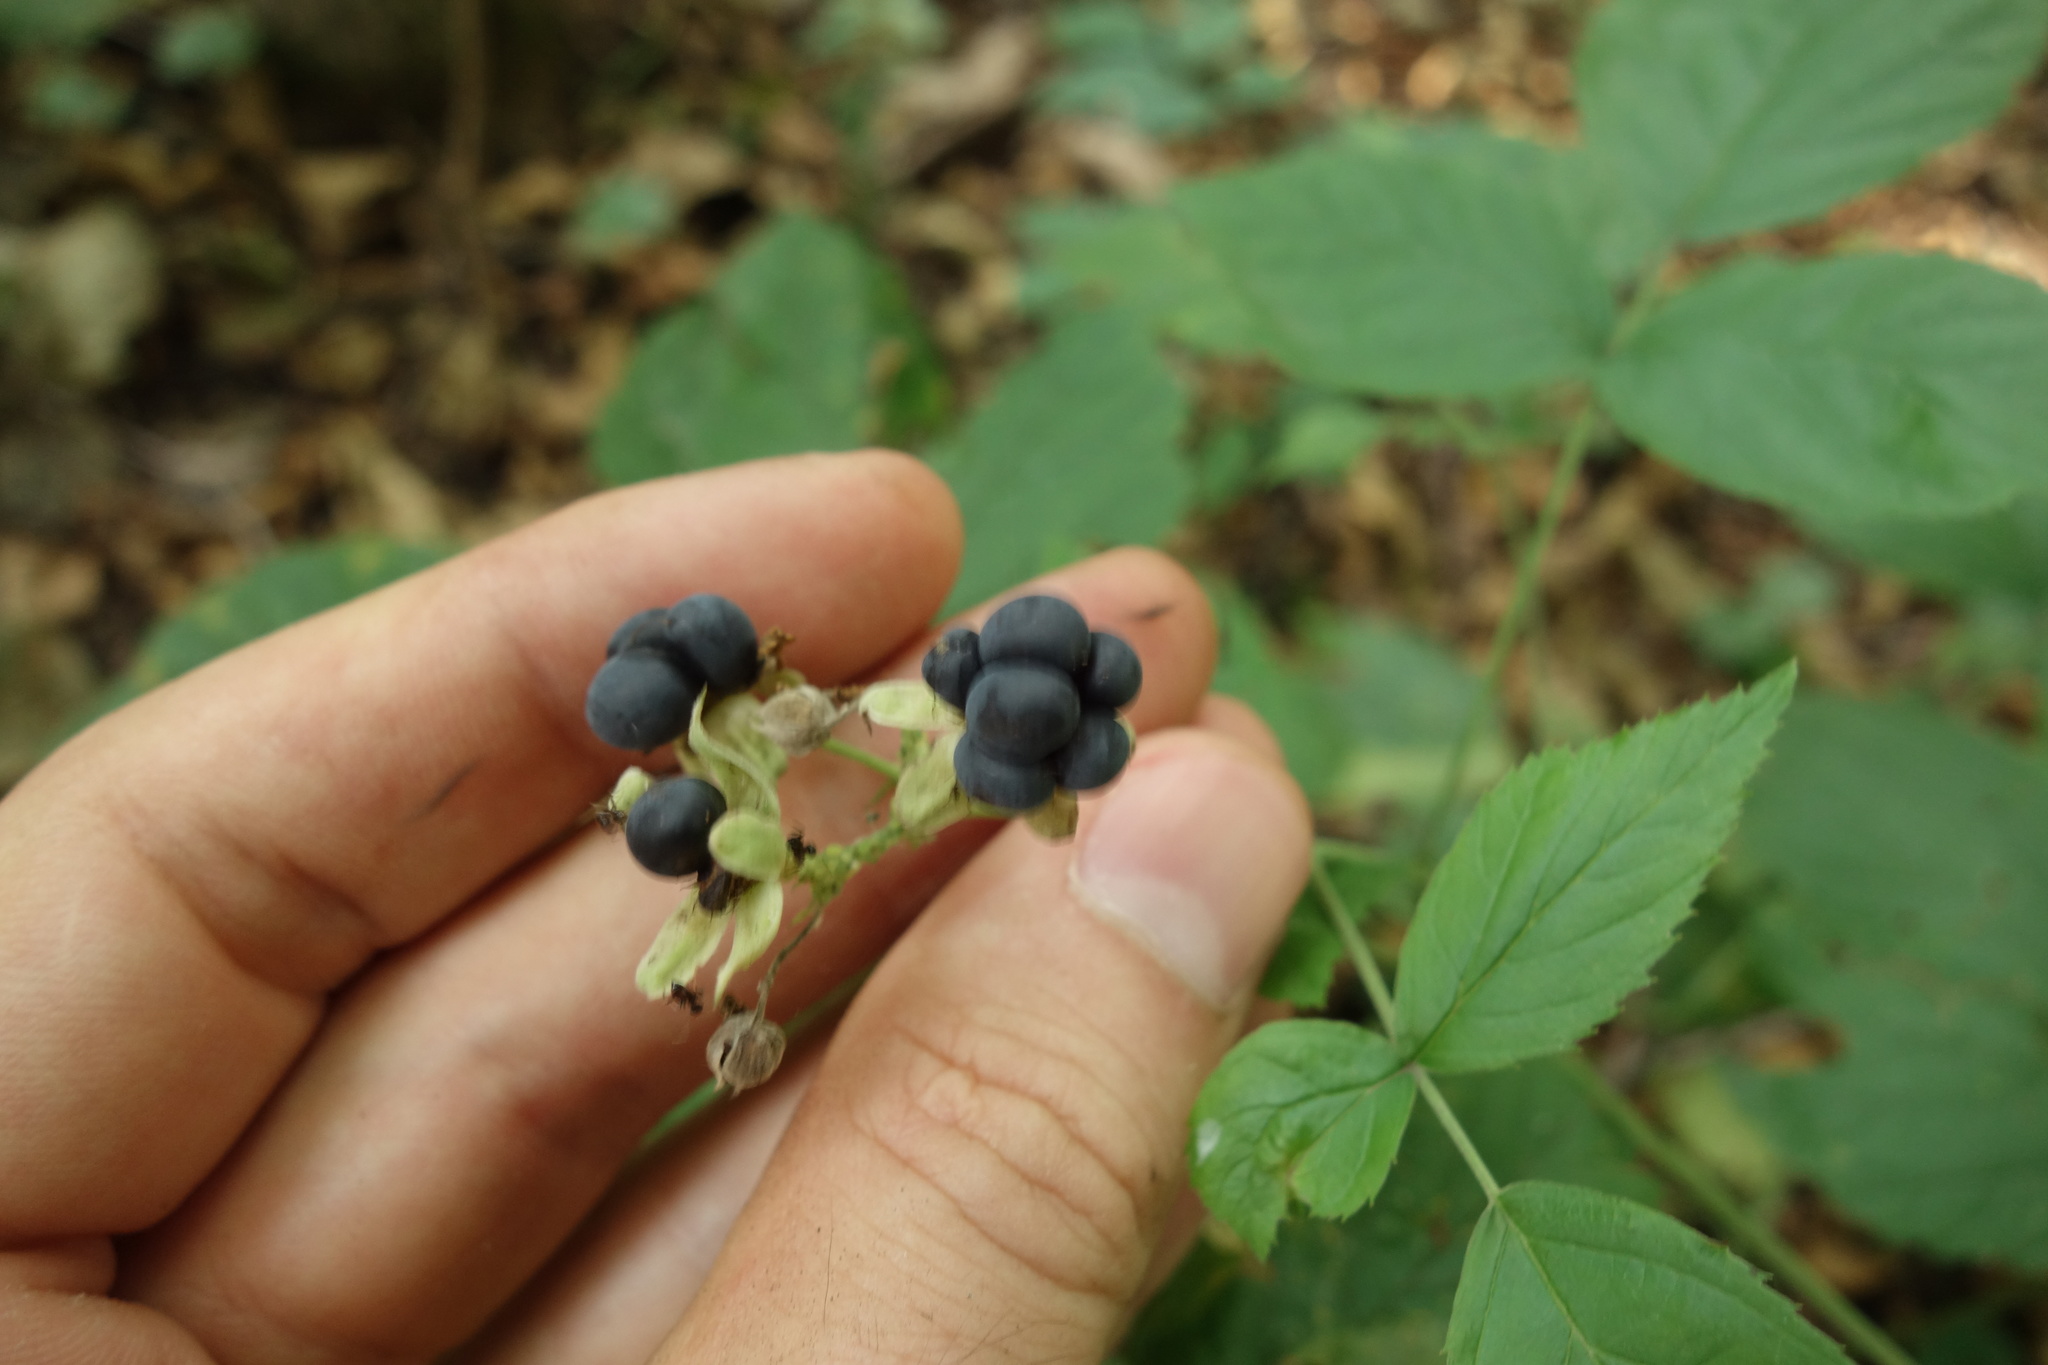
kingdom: Plantae
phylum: Tracheophyta
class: Magnoliopsida
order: Rosales
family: Rosaceae
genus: Rubus
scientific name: Rubus caesius
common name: Dewberry
